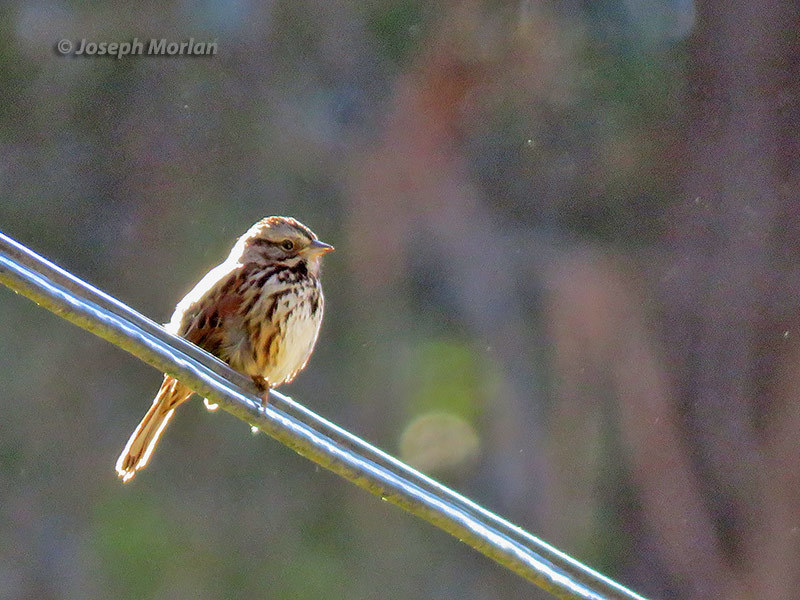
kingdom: Animalia
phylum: Chordata
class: Aves
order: Passeriformes
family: Passerellidae
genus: Melospiza
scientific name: Melospiza melodia
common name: Song sparrow
